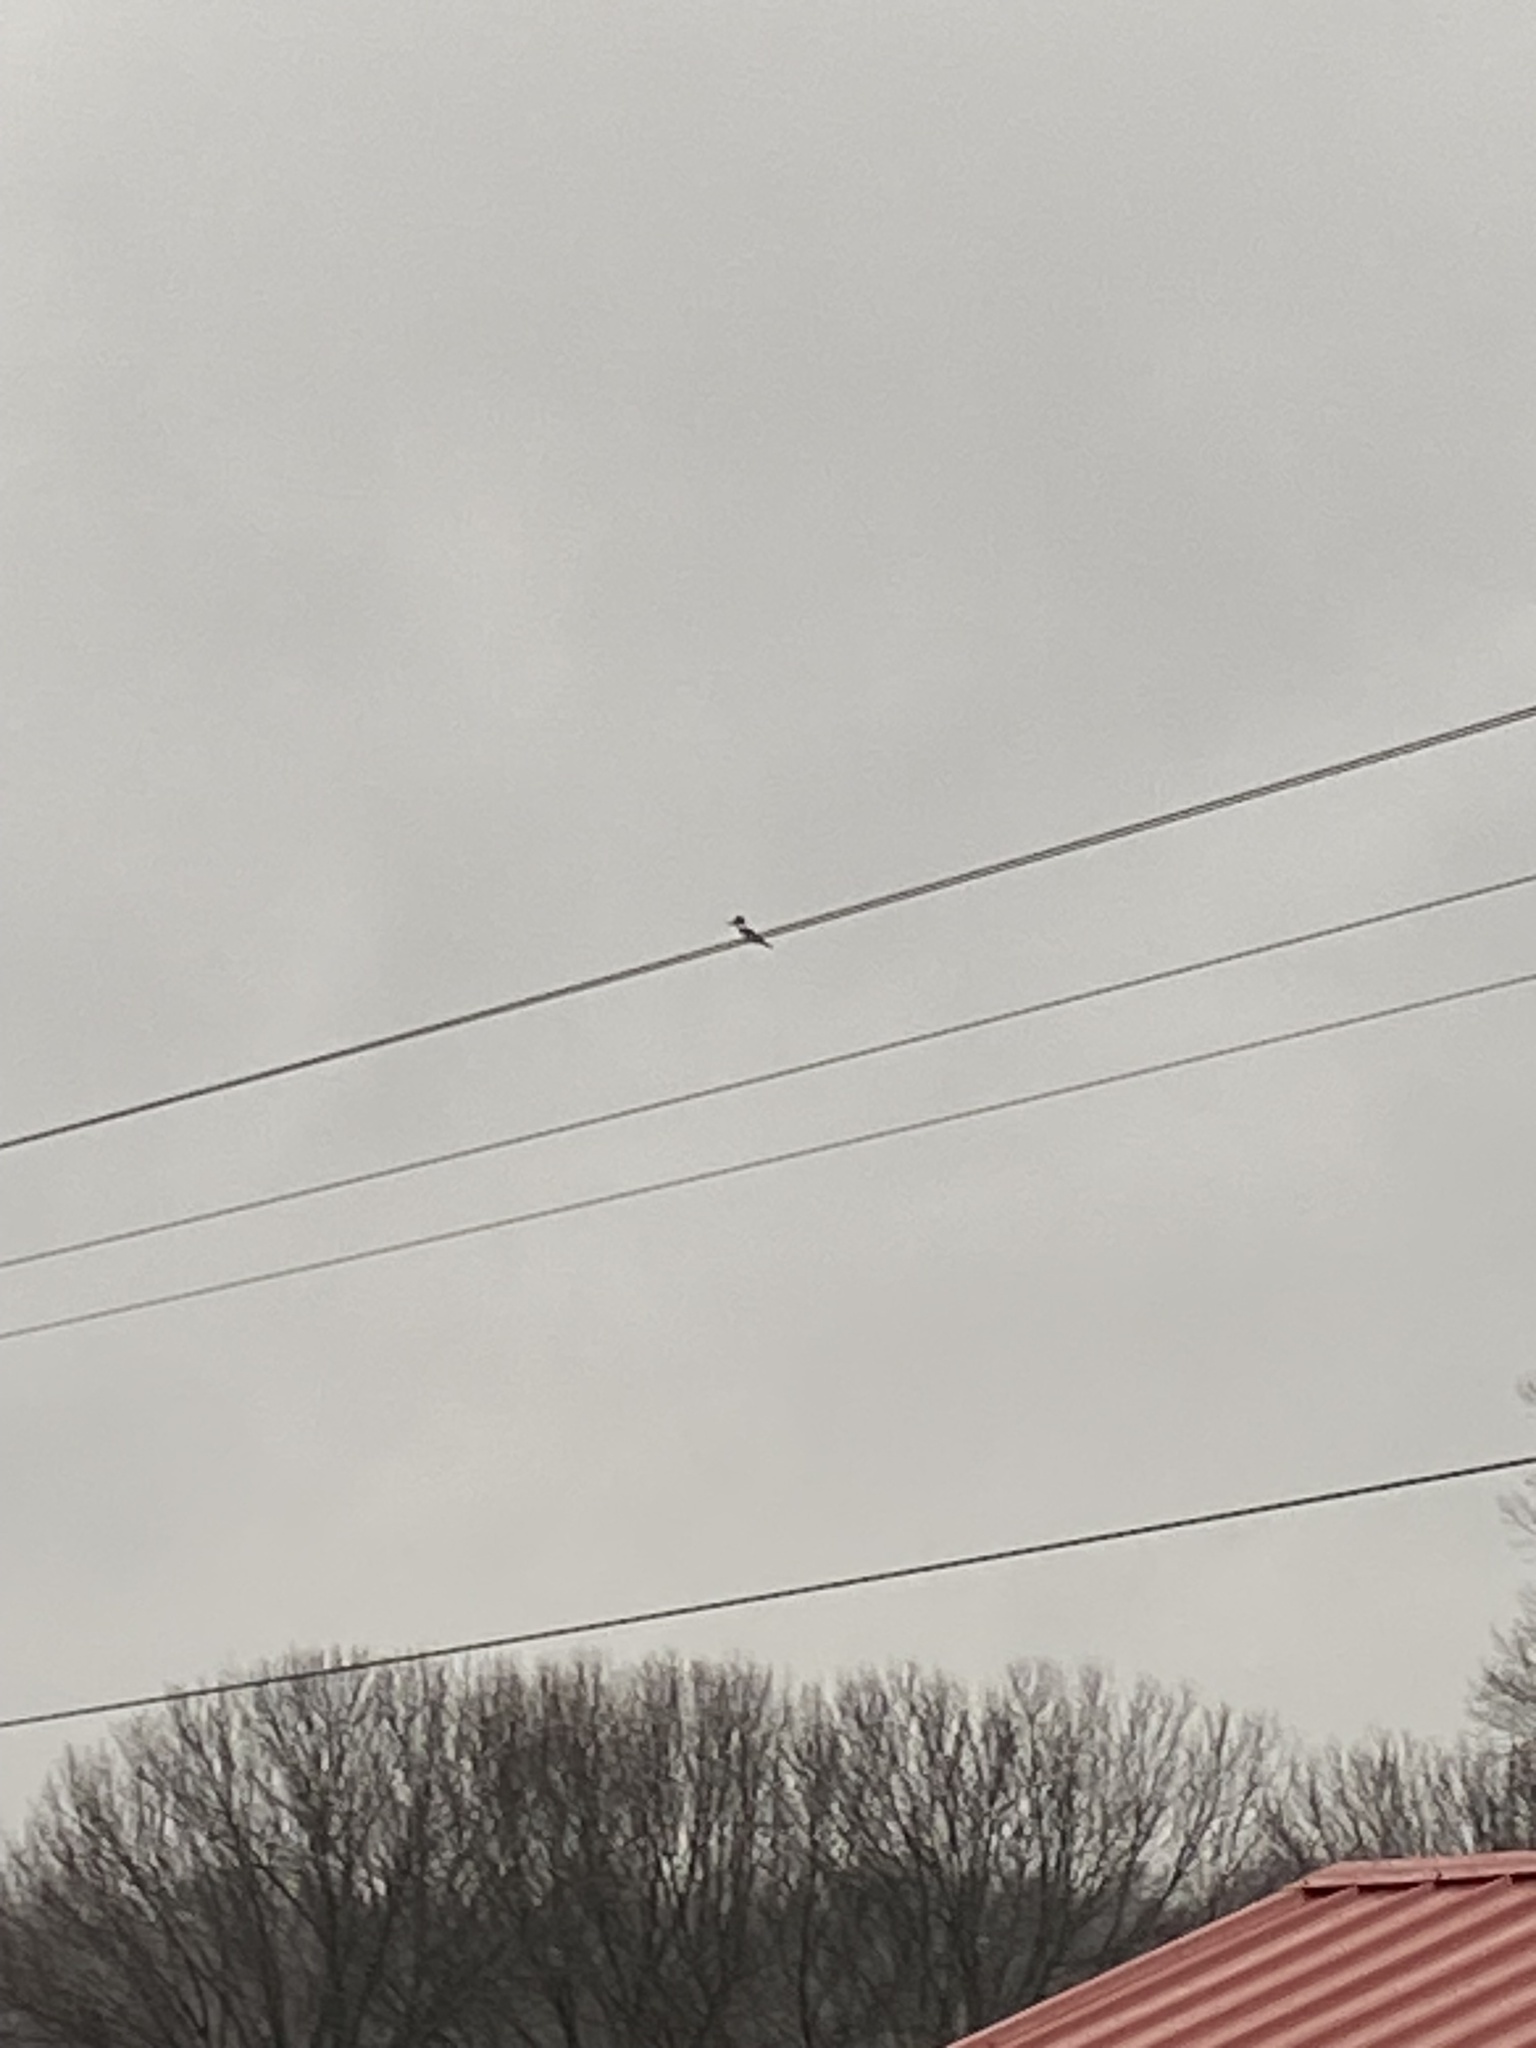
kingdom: Animalia
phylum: Chordata
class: Aves
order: Coraciiformes
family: Alcedinidae
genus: Megaceryle
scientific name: Megaceryle alcyon
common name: Belted kingfisher
